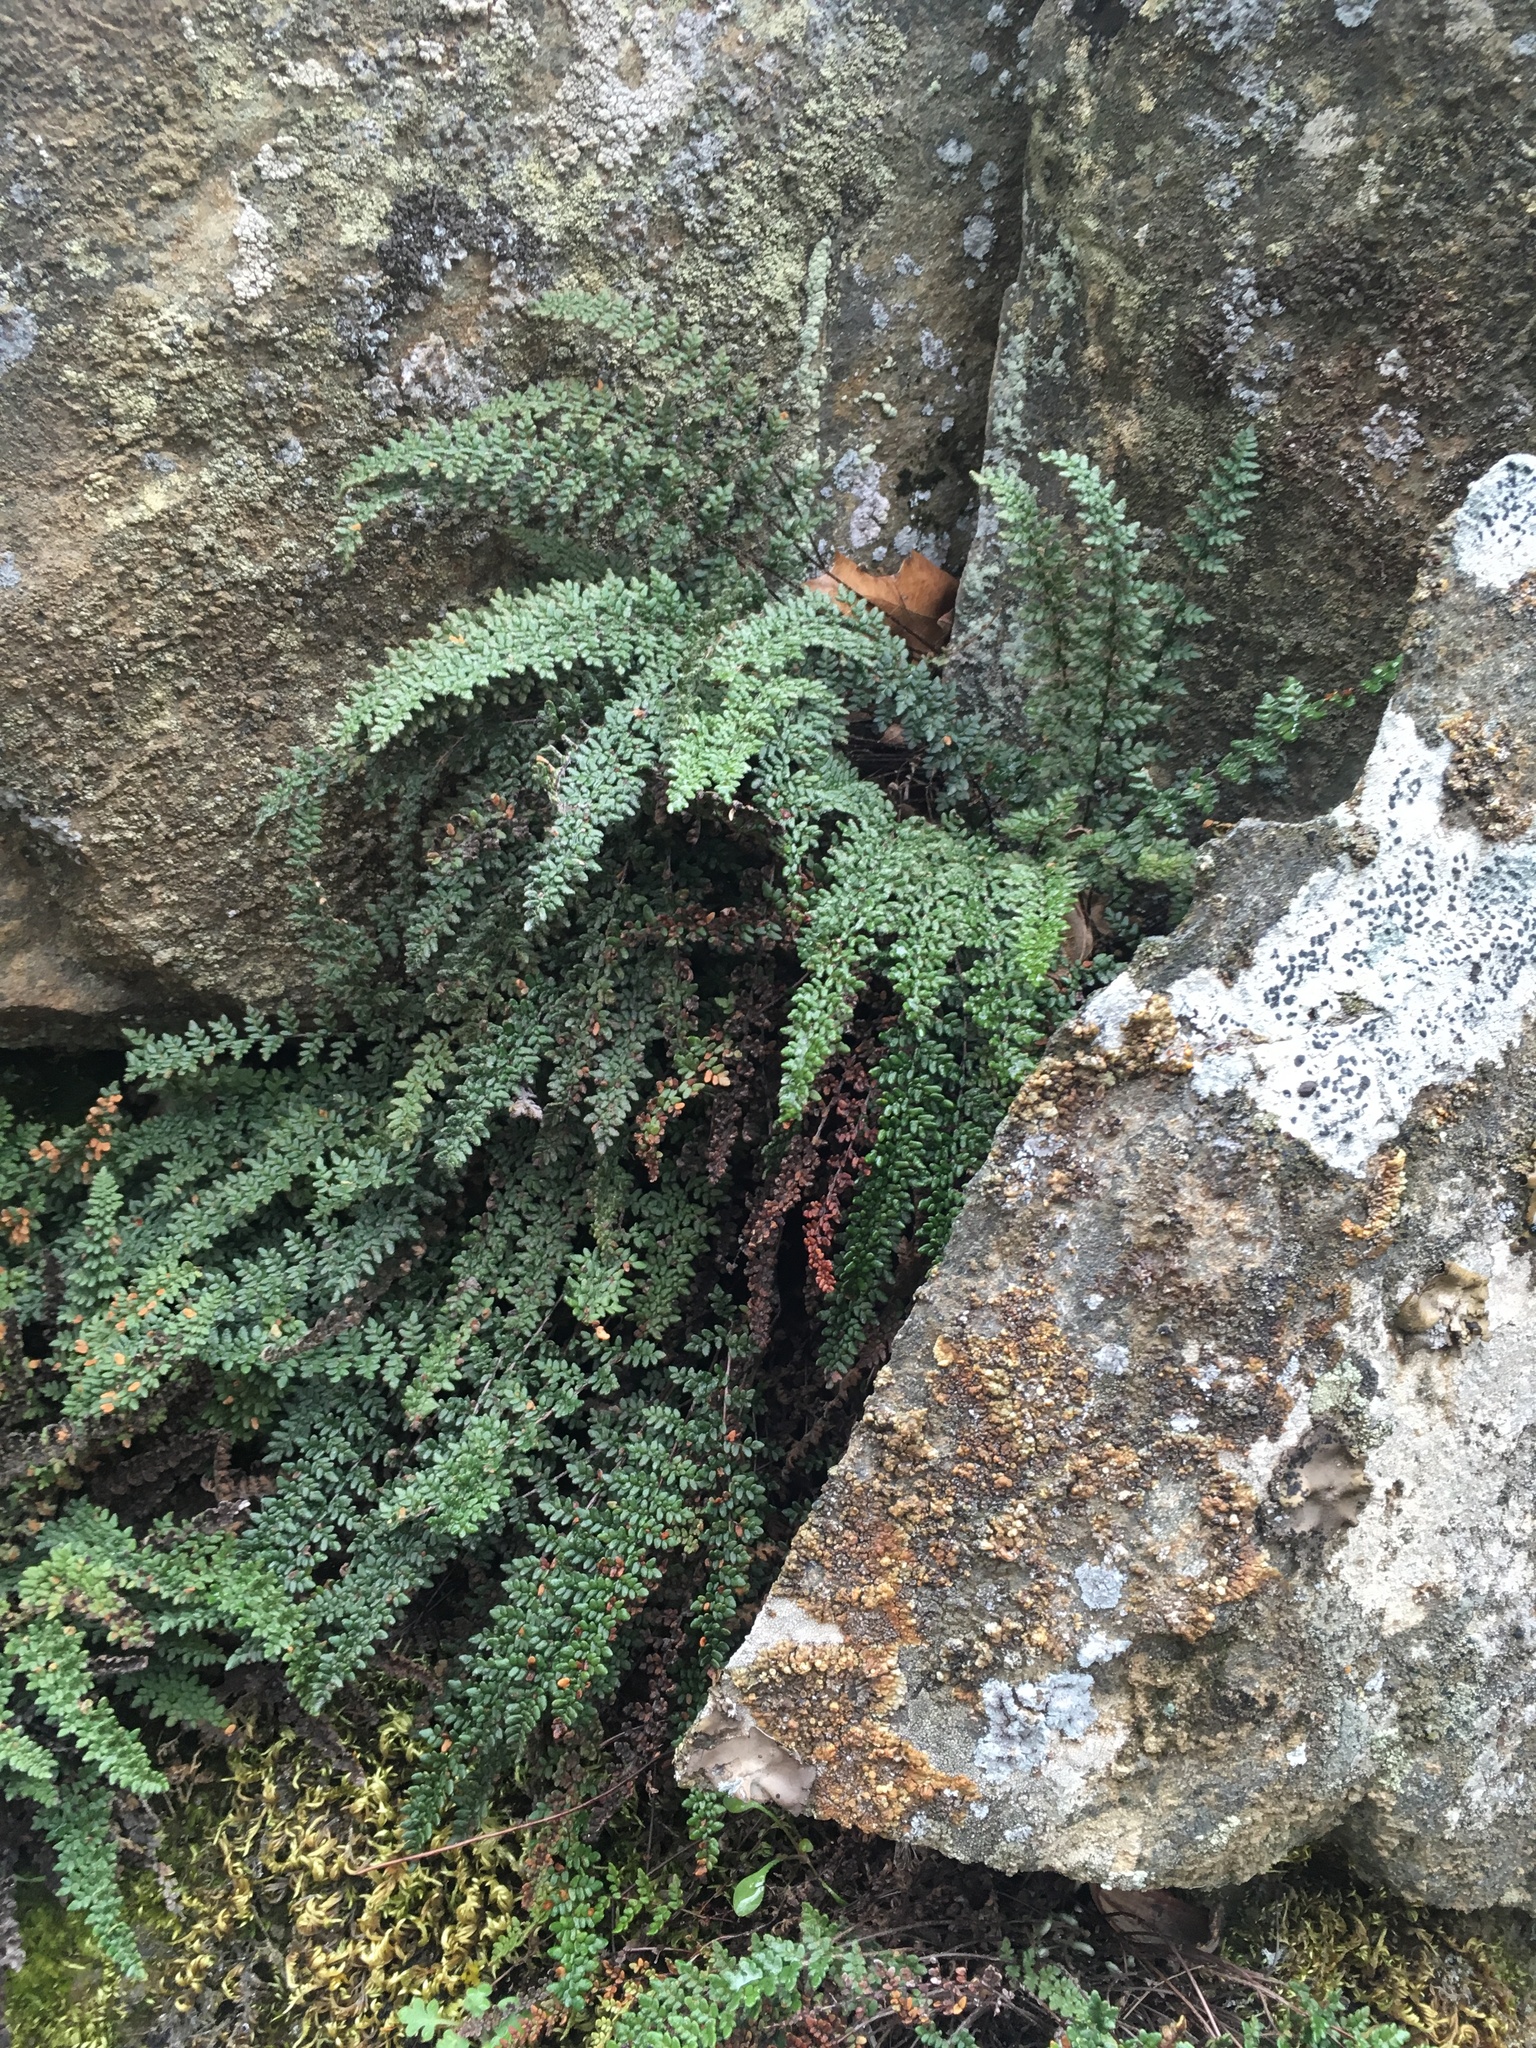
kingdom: Plantae
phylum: Tracheophyta
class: Polypodiopsida
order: Polypodiales
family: Pteridaceae
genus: Myriopteris
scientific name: Myriopteris gracillima
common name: Lace fern
